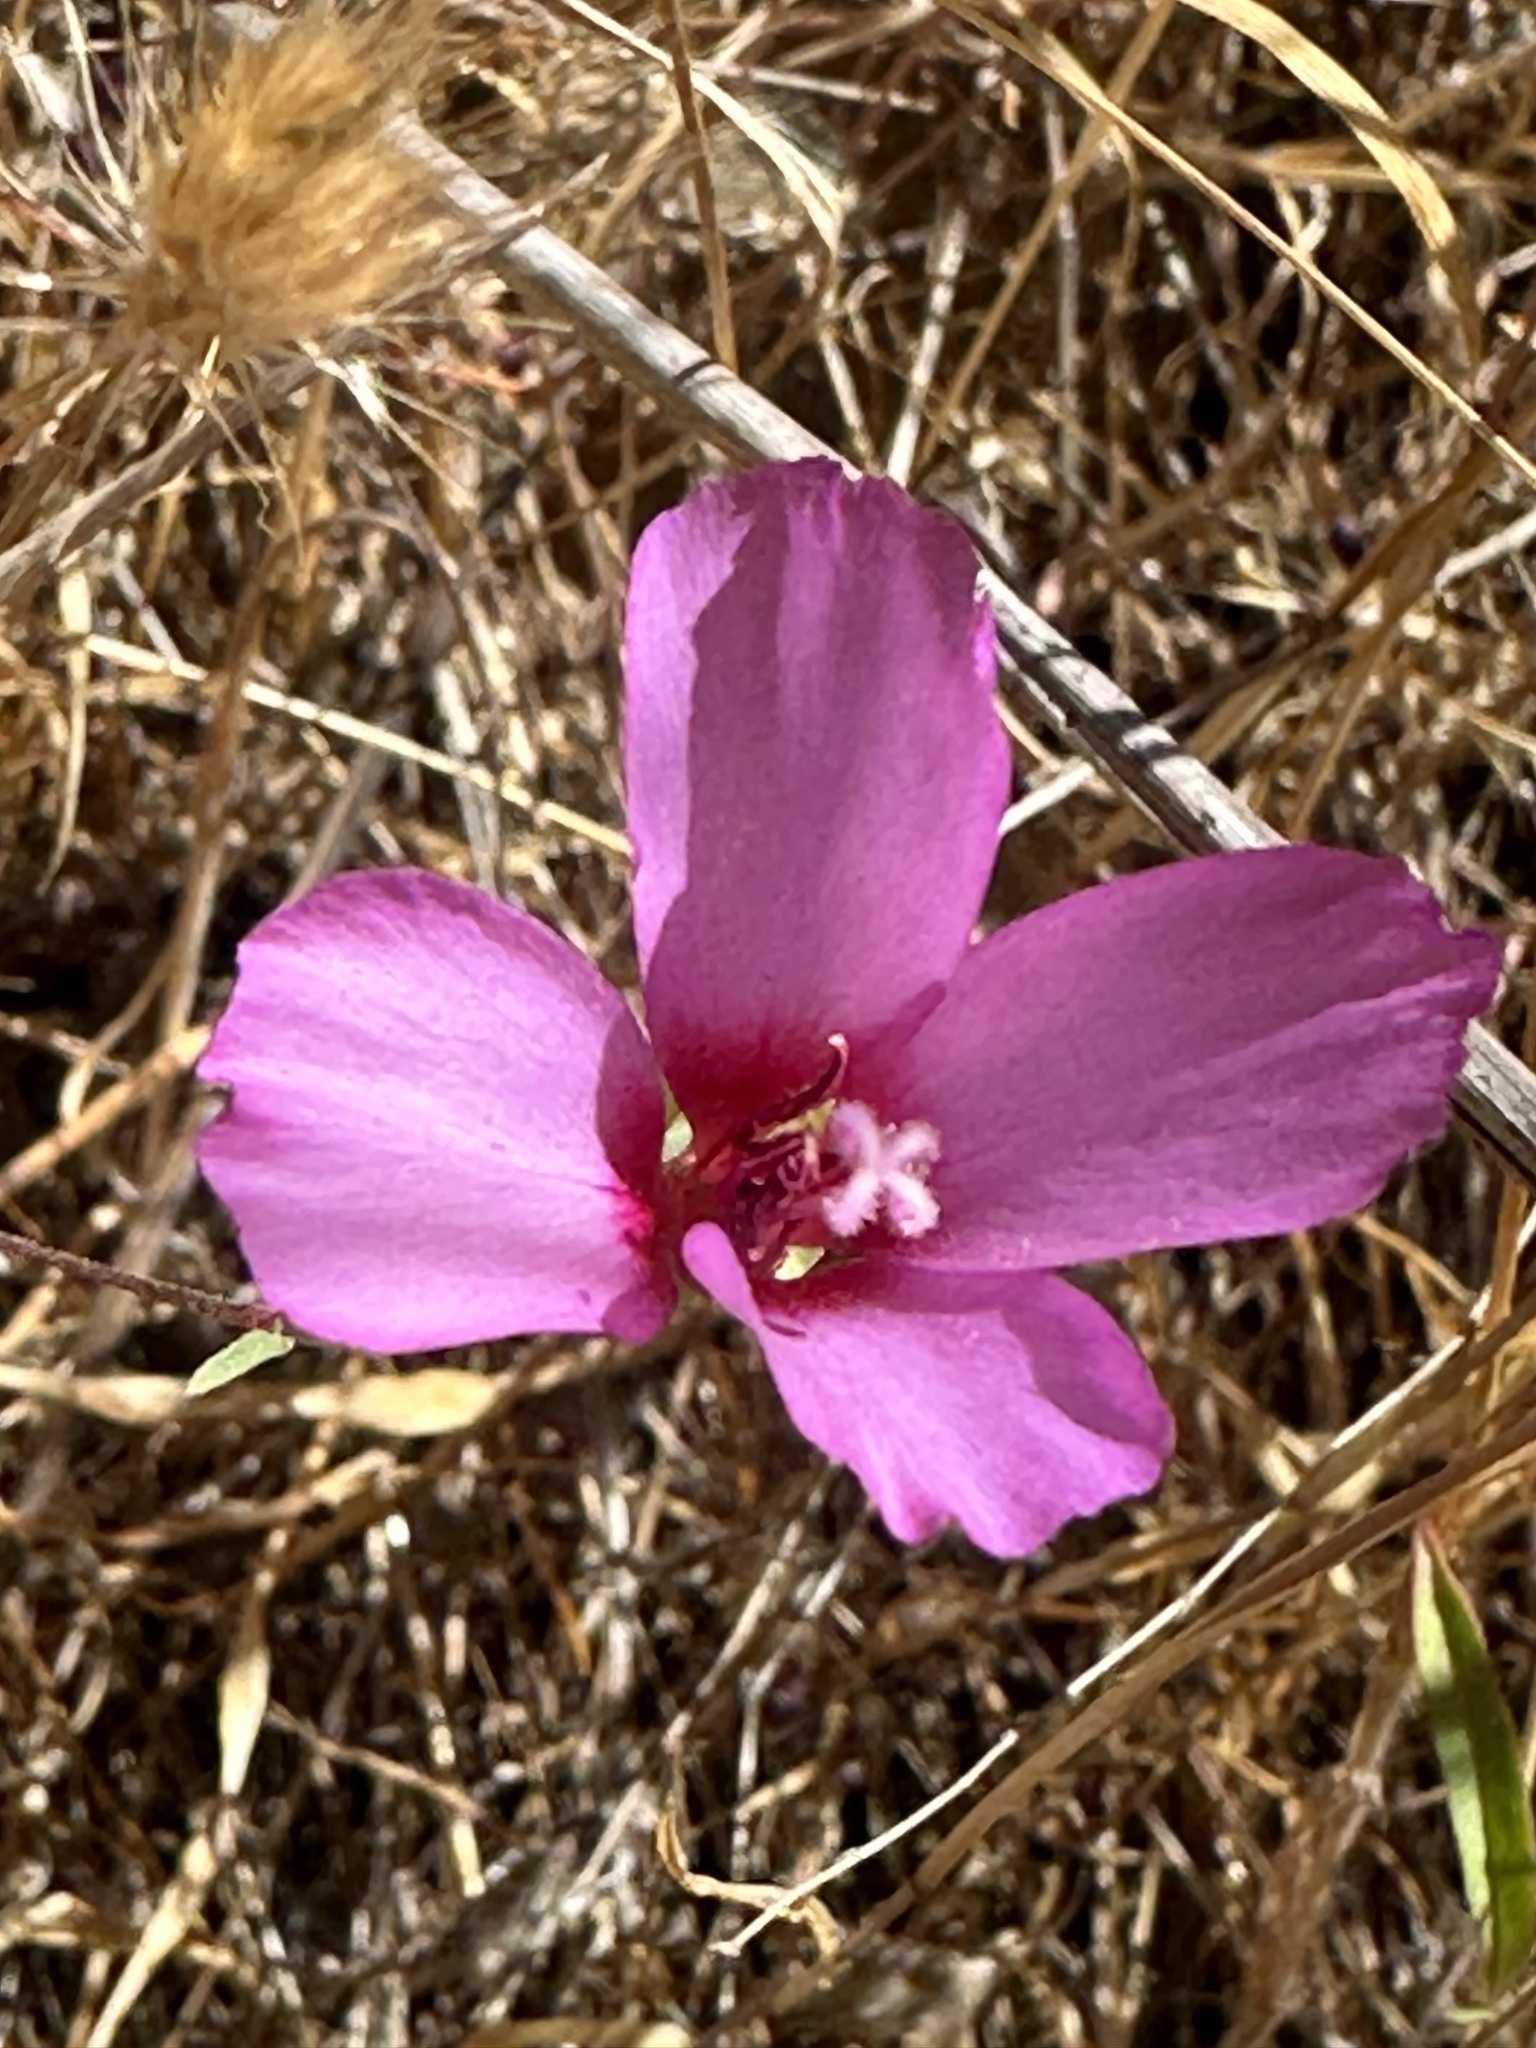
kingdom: Plantae
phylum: Tracheophyta
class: Magnoliopsida
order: Myrtales
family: Onagraceae
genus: Clarkia
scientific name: Clarkia rubicunda
